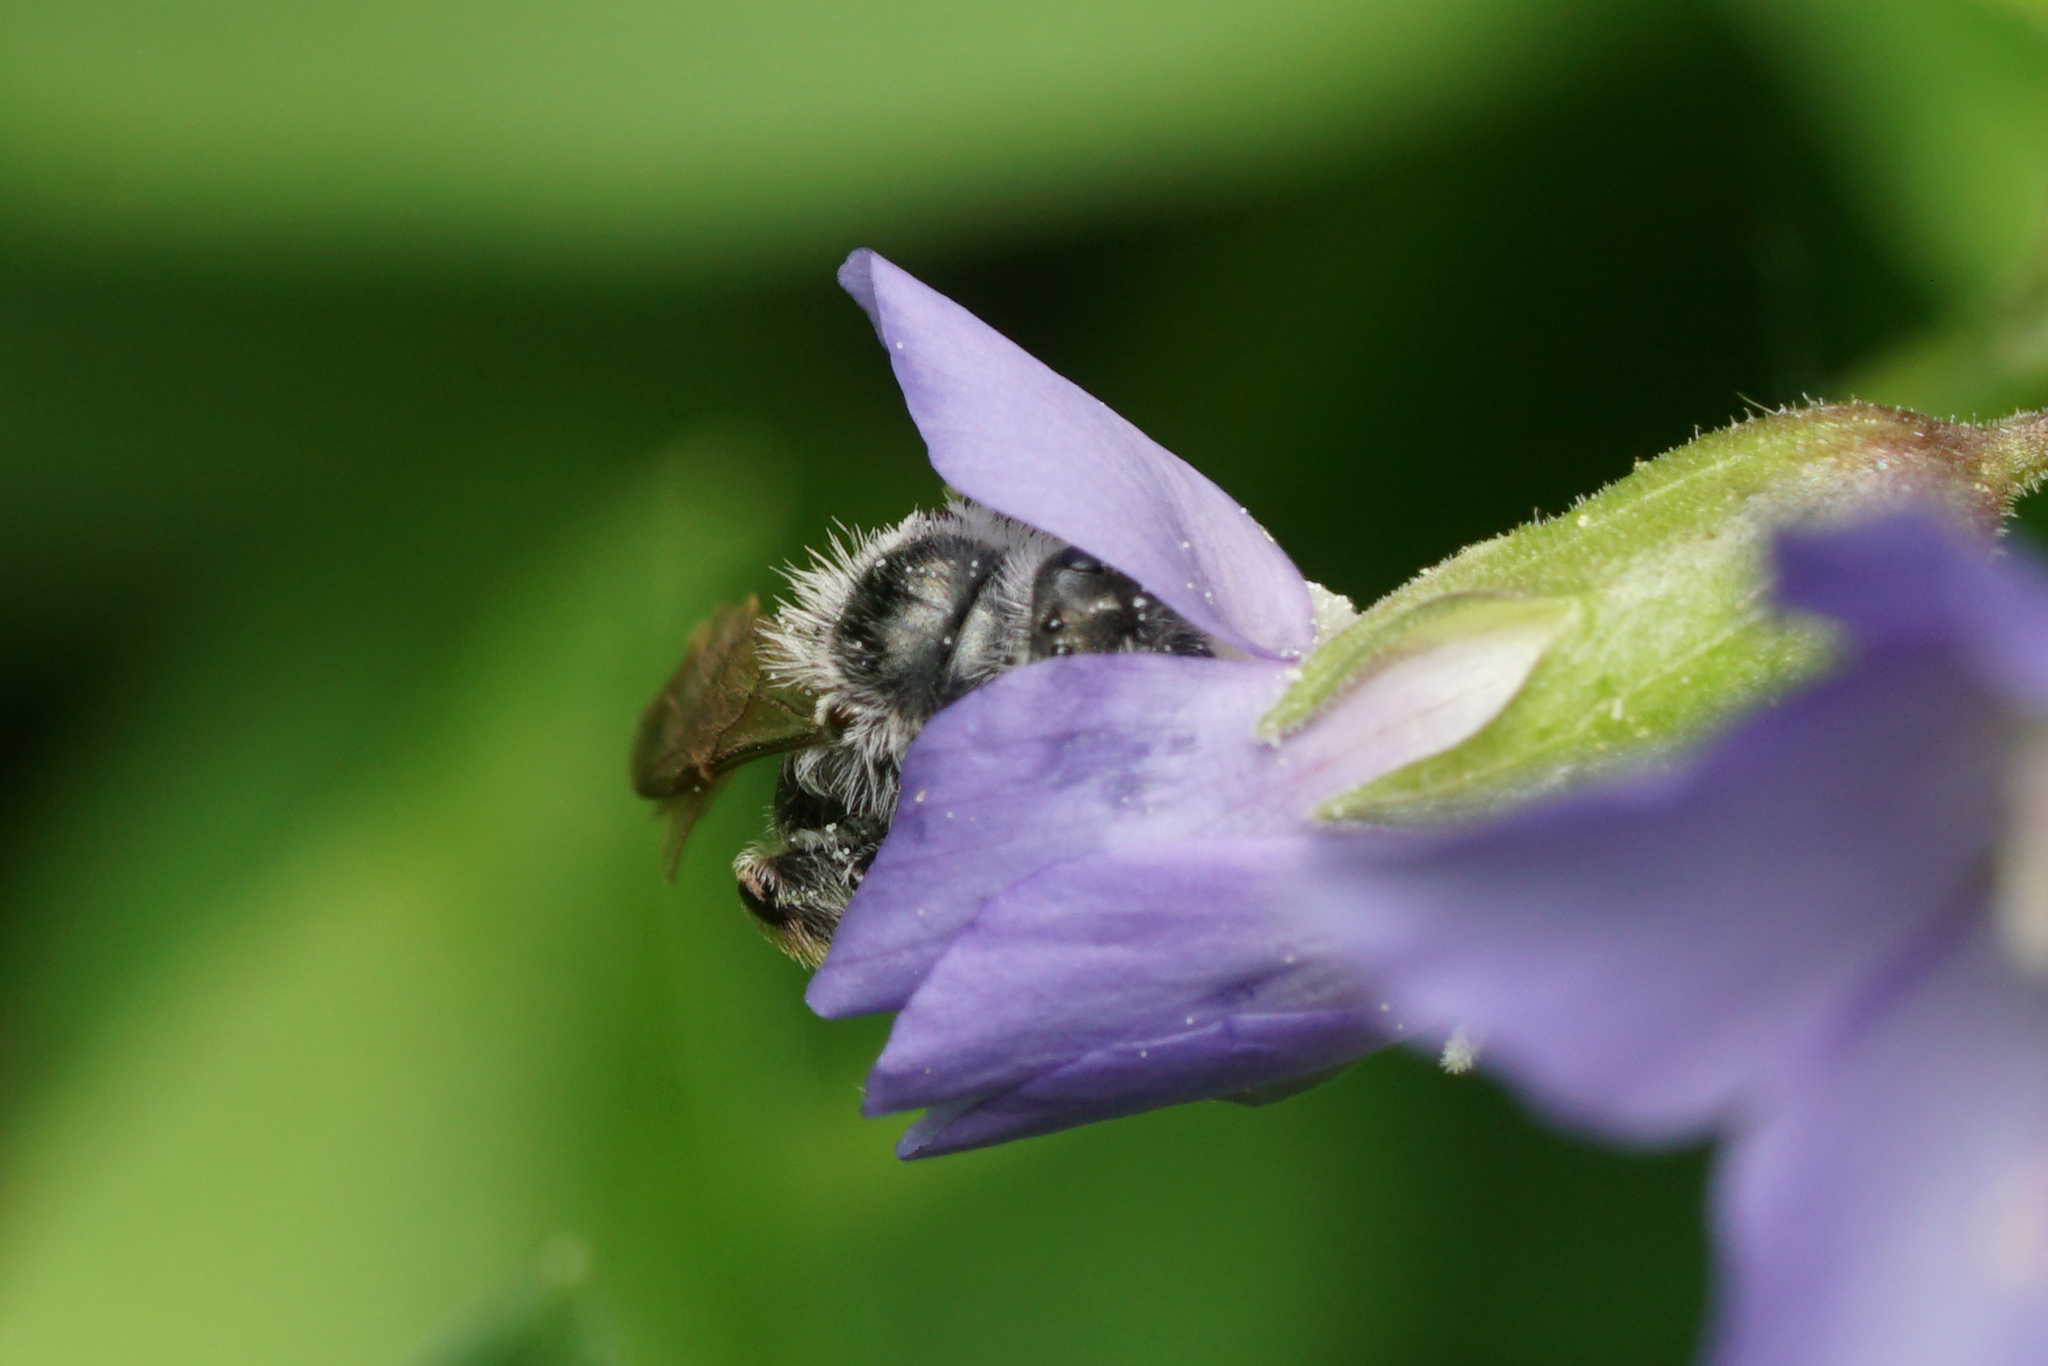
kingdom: Animalia
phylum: Arthropoda
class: Insecta
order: Hymenoptera
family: Andrenidae
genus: Andrena
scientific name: Andrena polemonii
